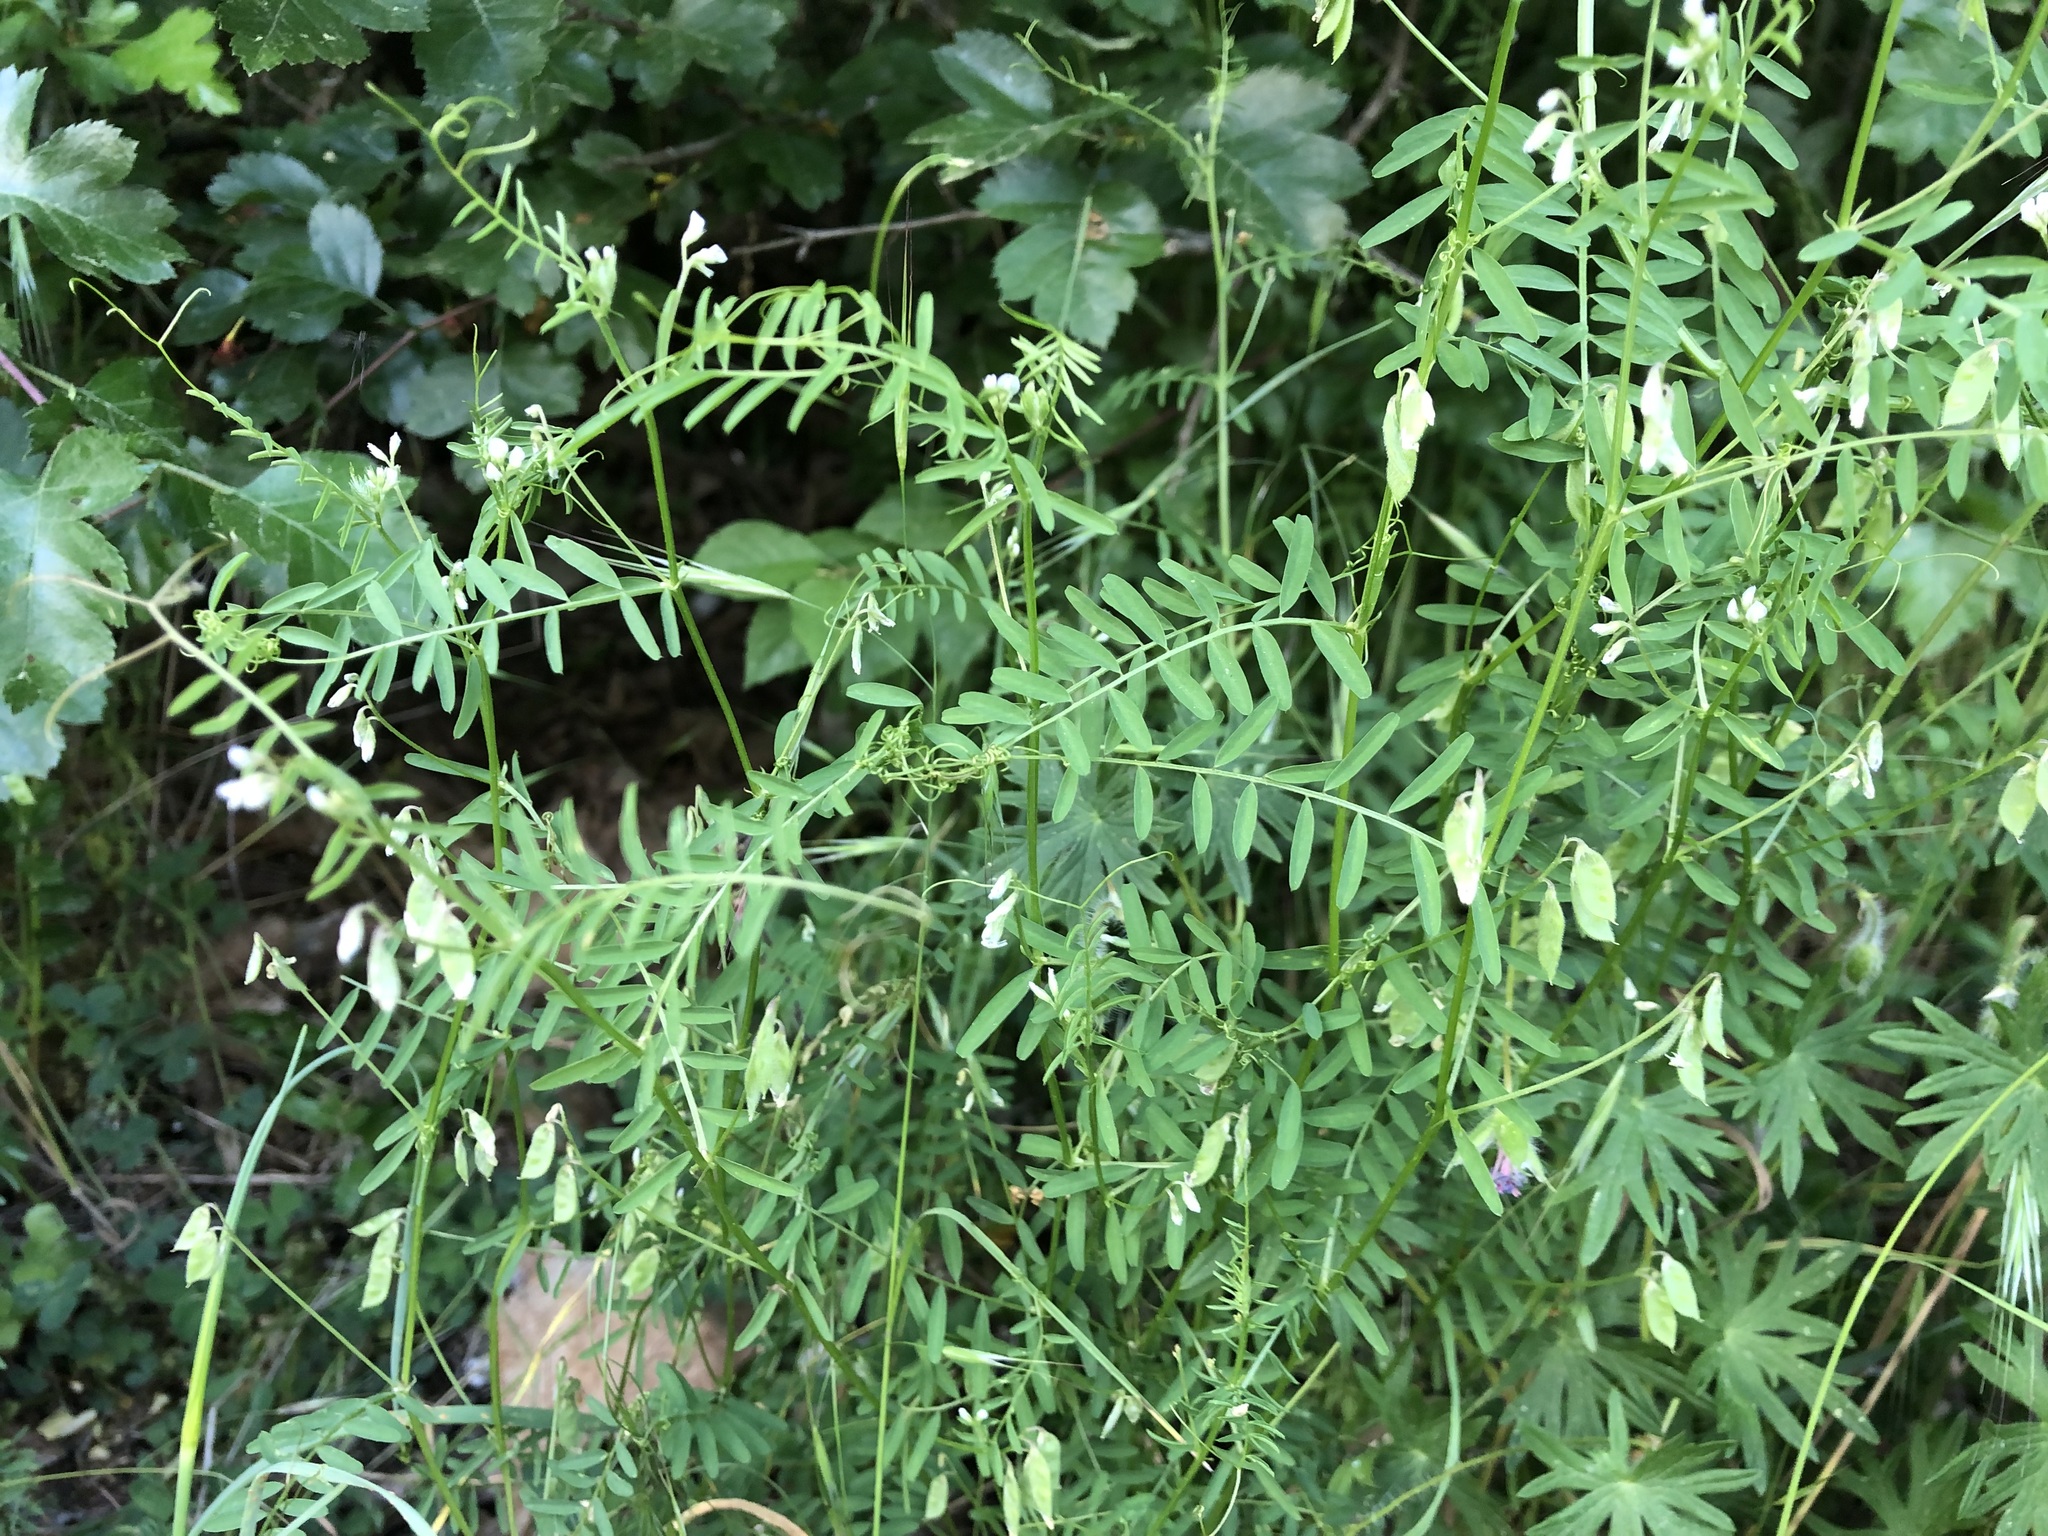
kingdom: Plantae
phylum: Tracheophyta
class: Magnoliopsida
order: Fabales
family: Fabaceae
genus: Vicia
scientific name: Vicia hirsuta
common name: Tiny vetch
